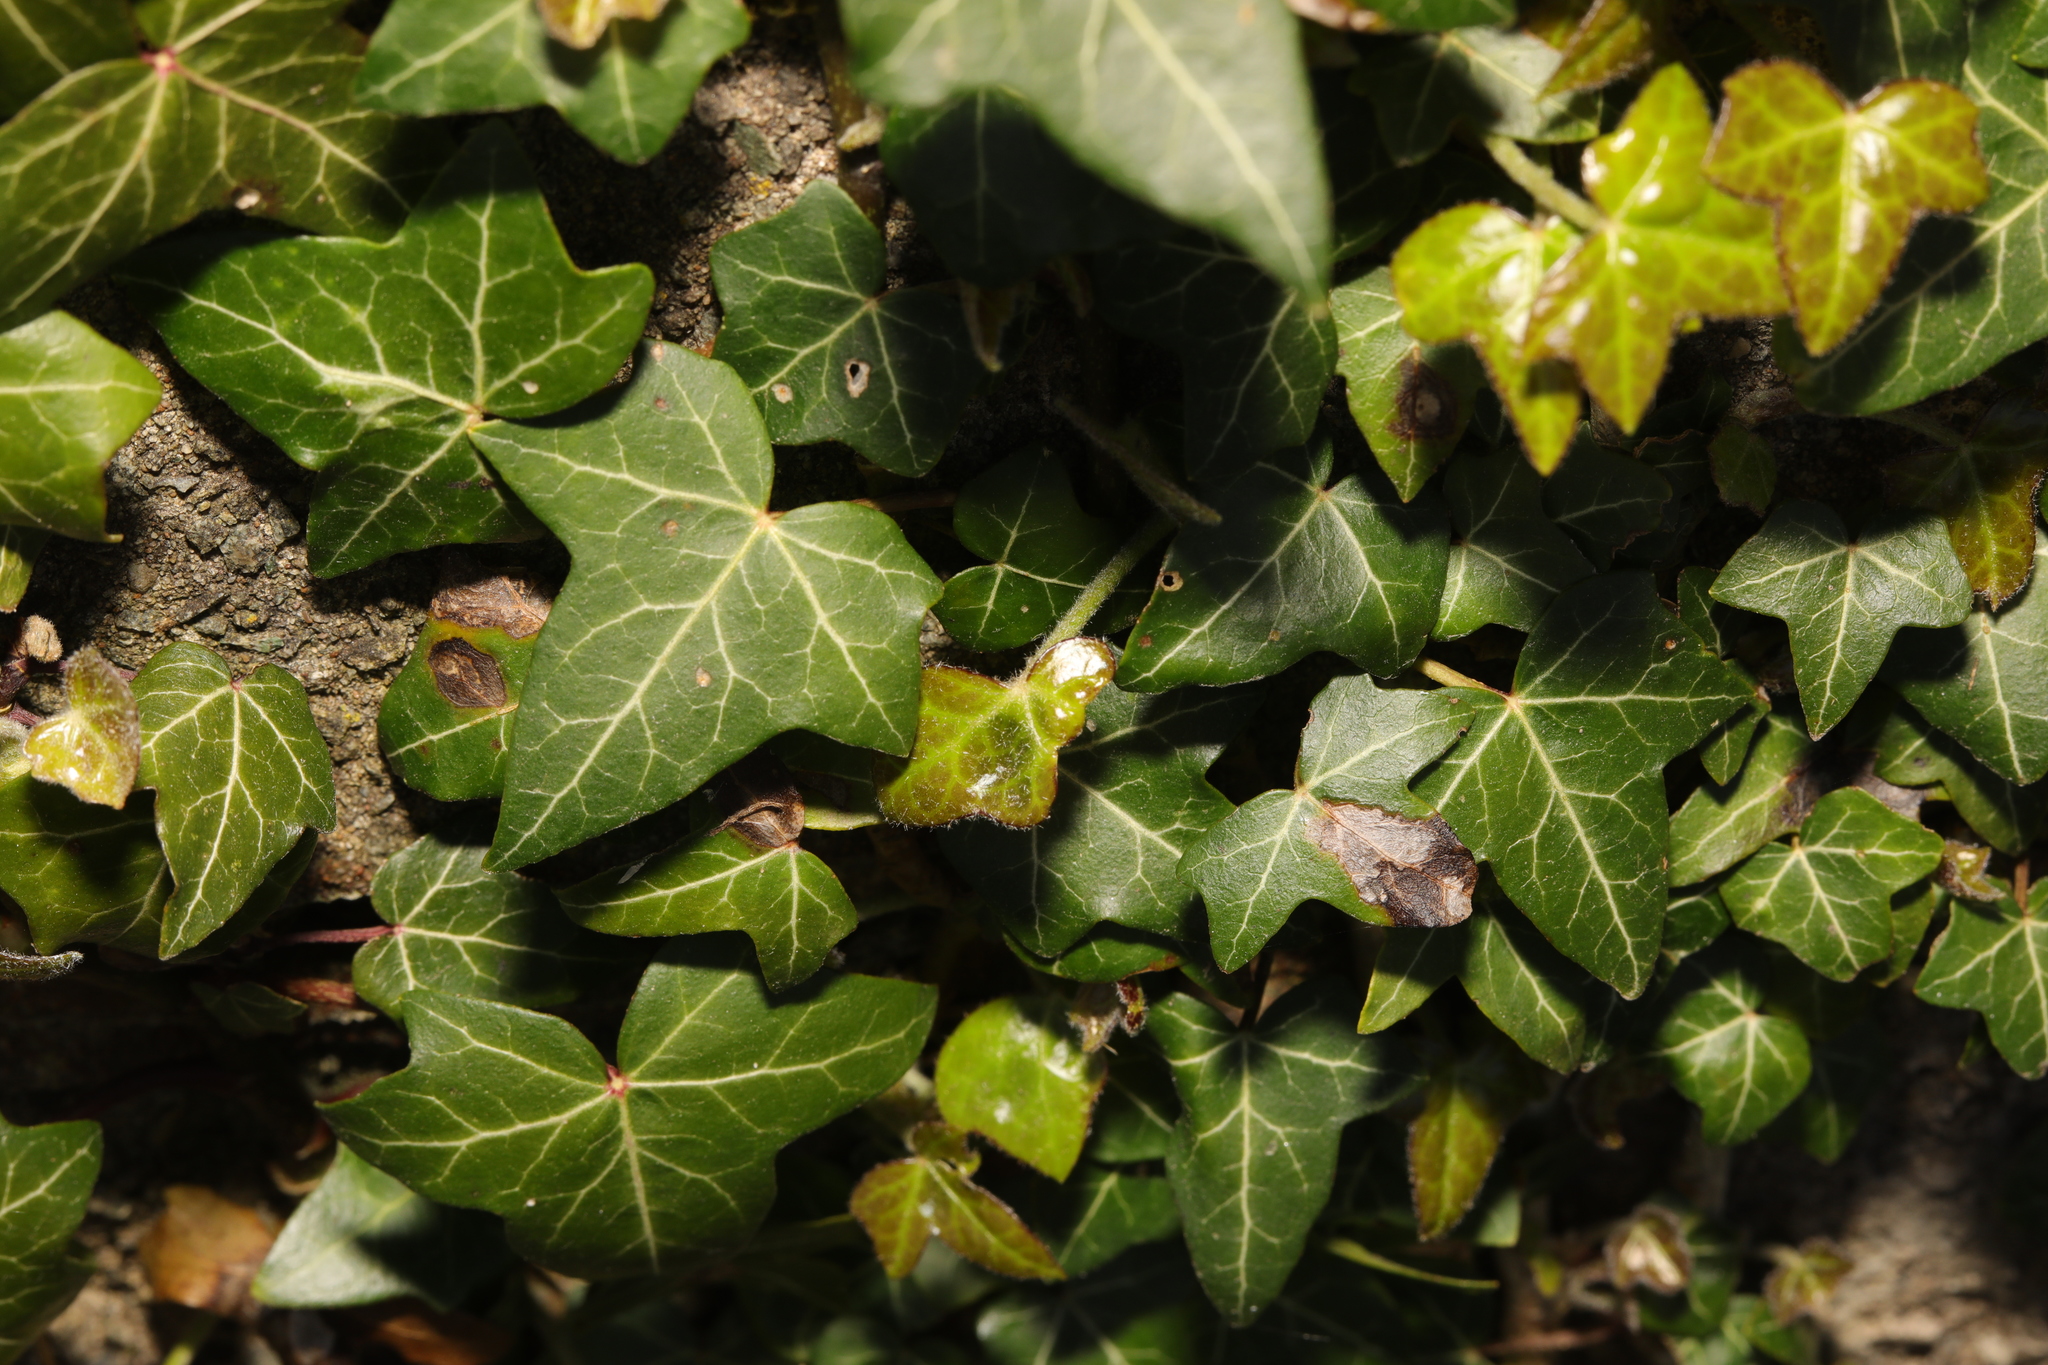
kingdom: Plantae
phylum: Tracheophyta
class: Magnoliopsida
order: Apiales
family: Araliaceae
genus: Hedera
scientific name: Hedera helix
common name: Ivy
